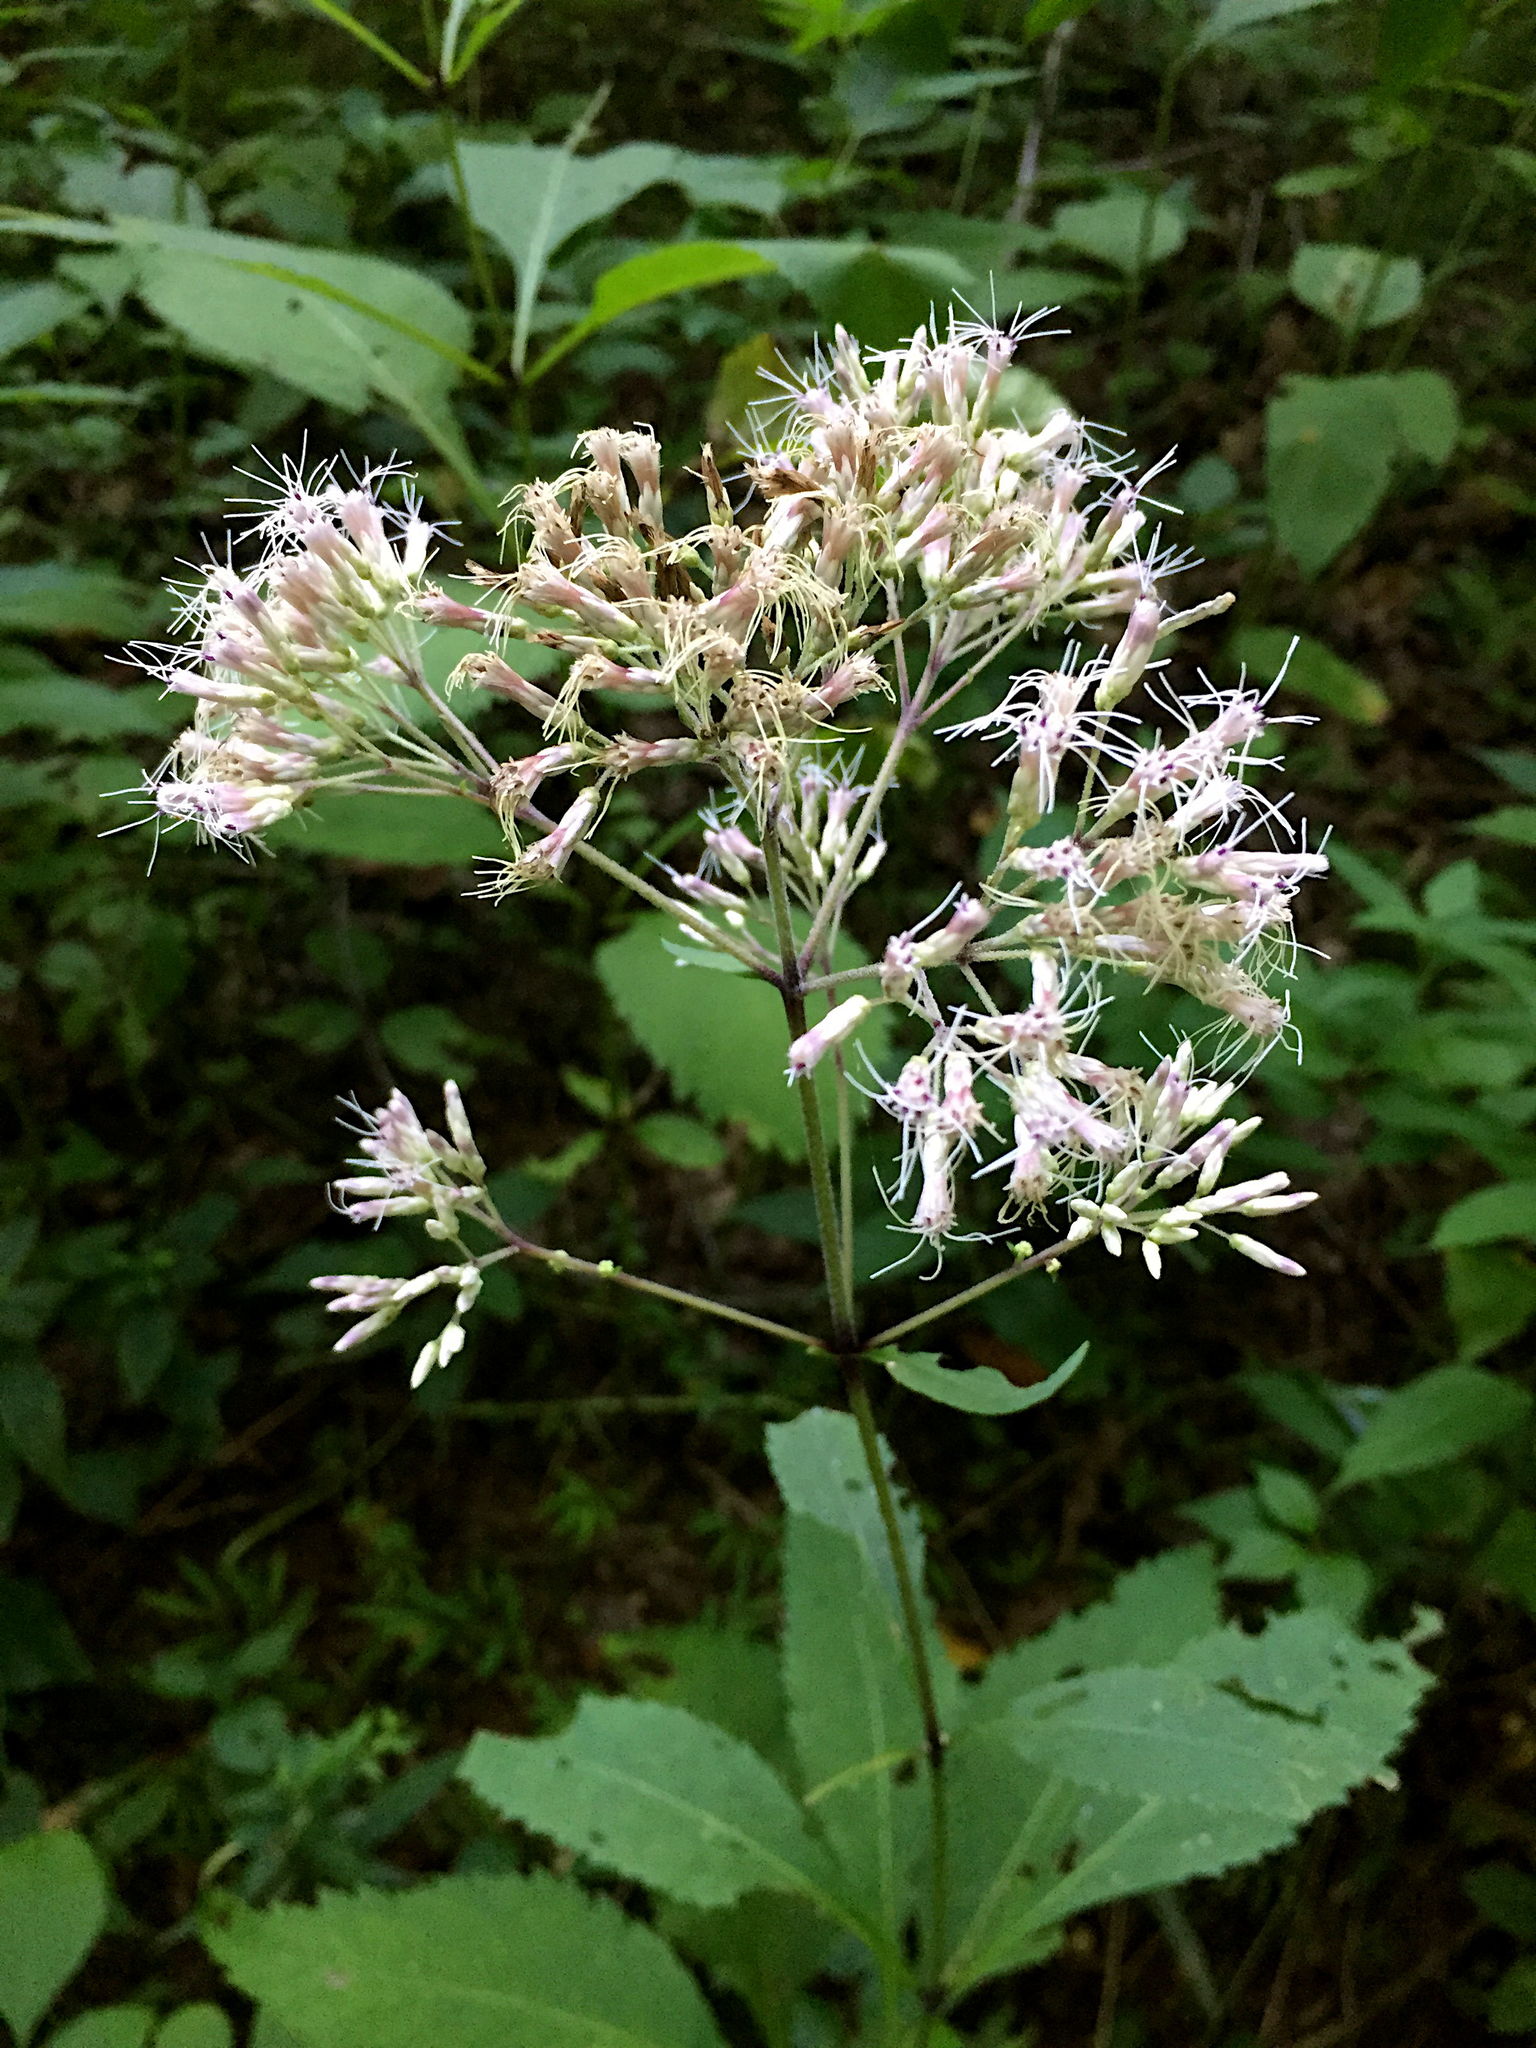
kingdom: Plantae
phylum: Tracheophyta
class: Magnoliopsida
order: Asterales
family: Asteraceae
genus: Eutrochium
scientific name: Eutrochium purpureum
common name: Gravelroot
